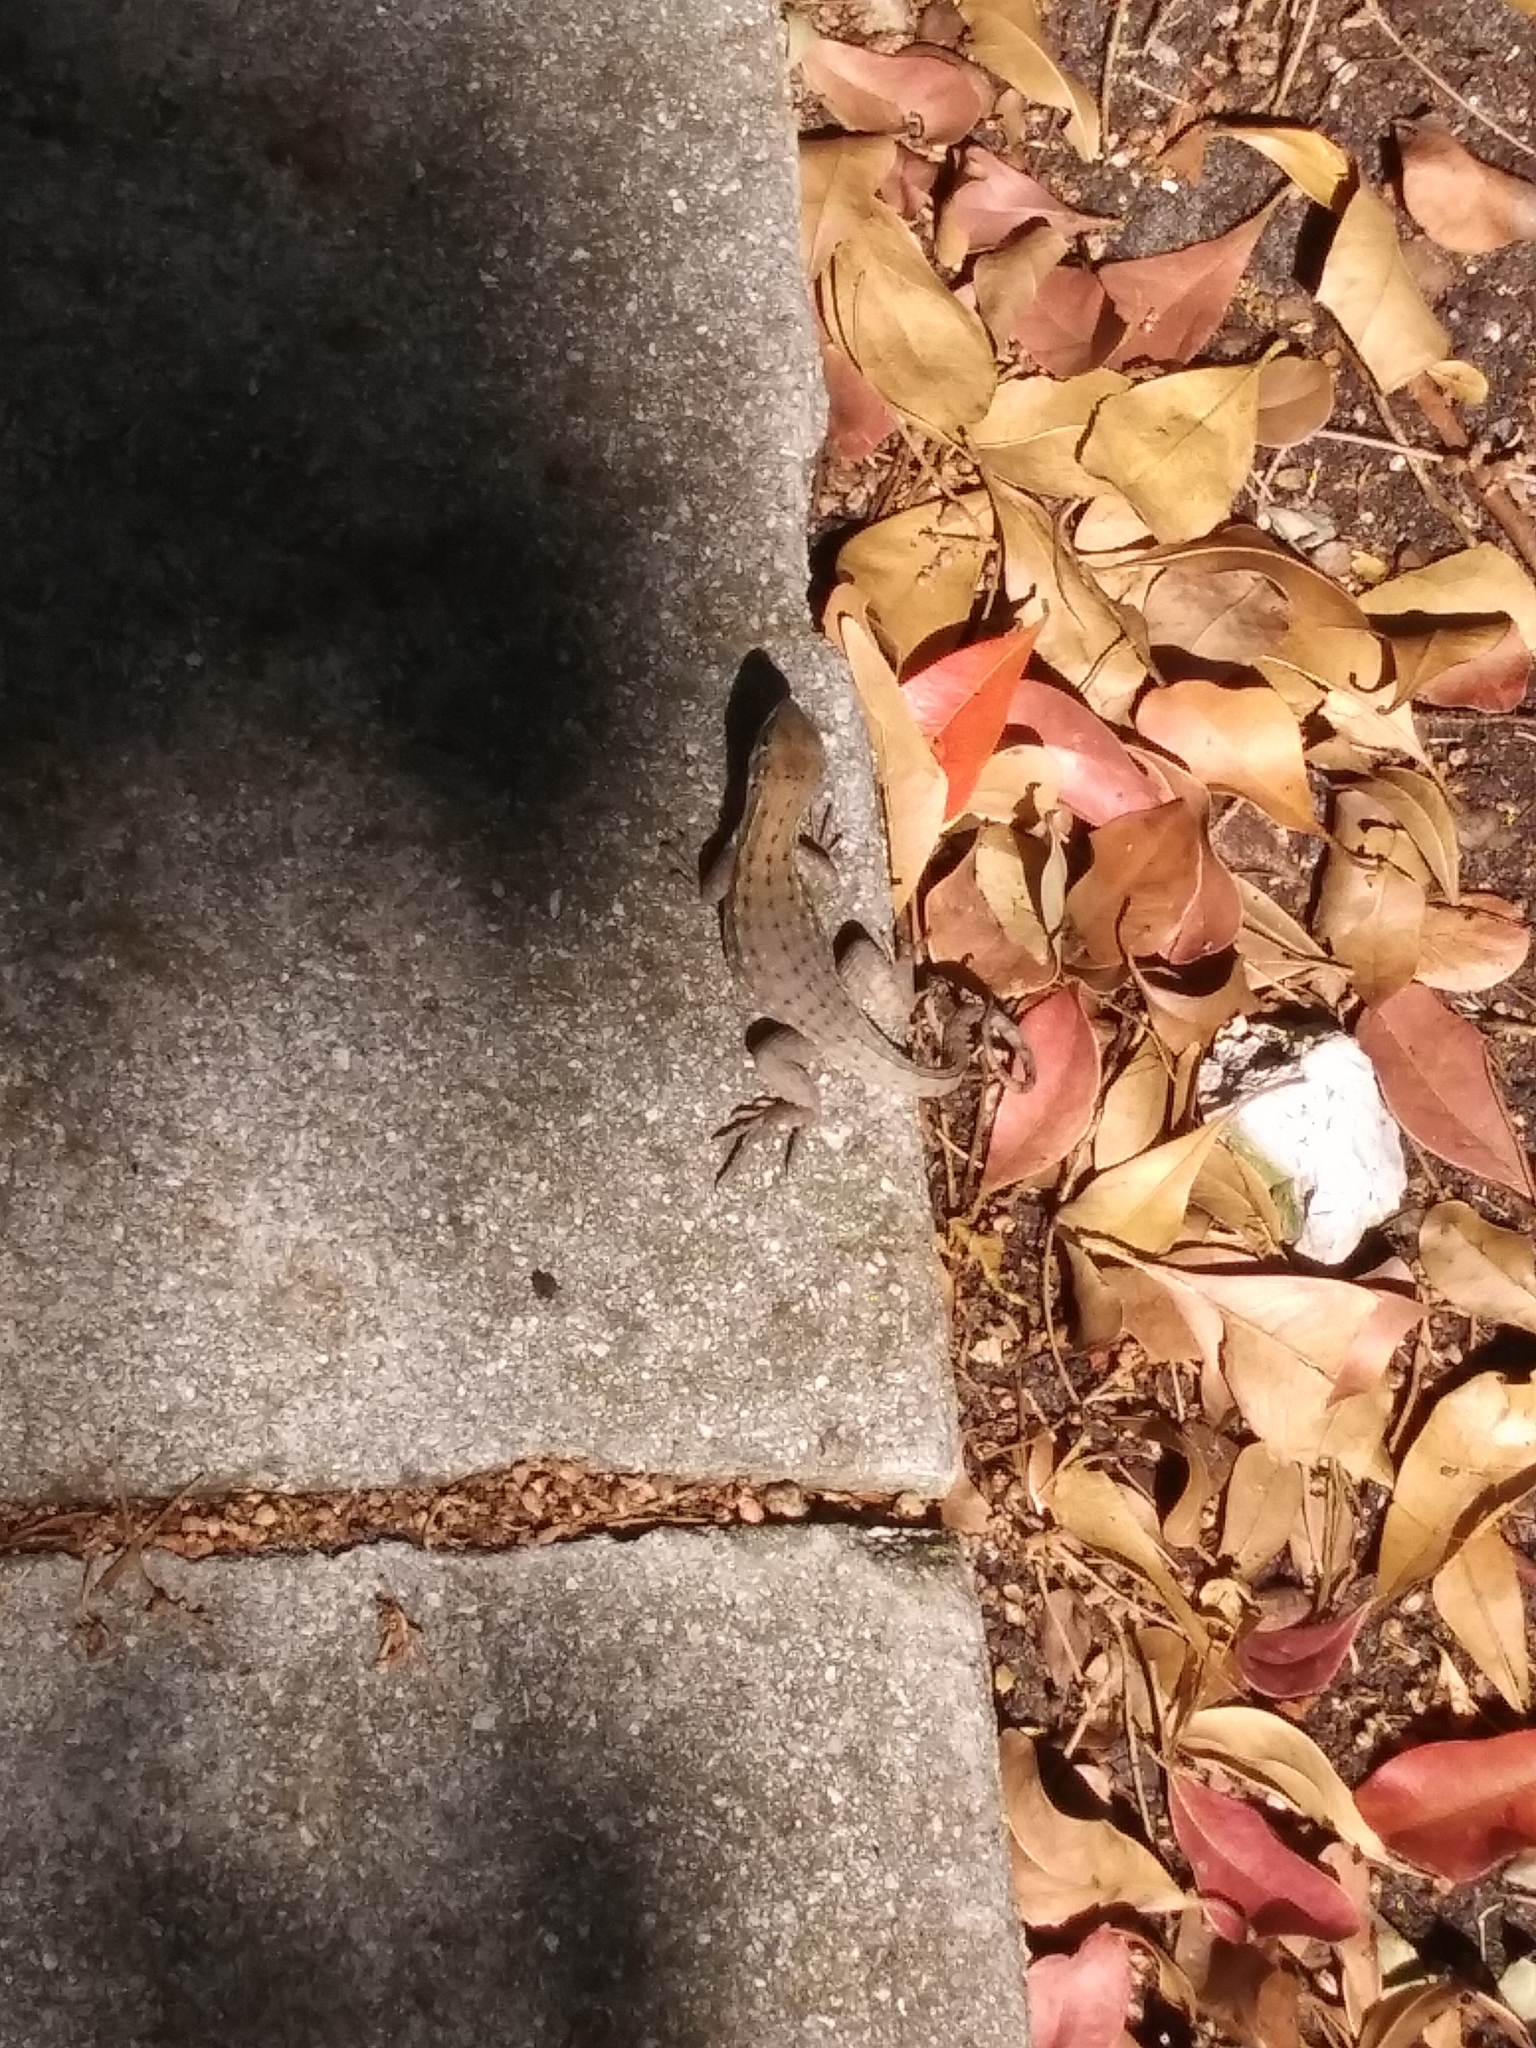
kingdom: Animalia
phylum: Chordata
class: Squamata
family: Leiocephalidae
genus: Leiocephalus
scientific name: Leiocephalus carinatus
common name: Northern curly-tailed lizard
